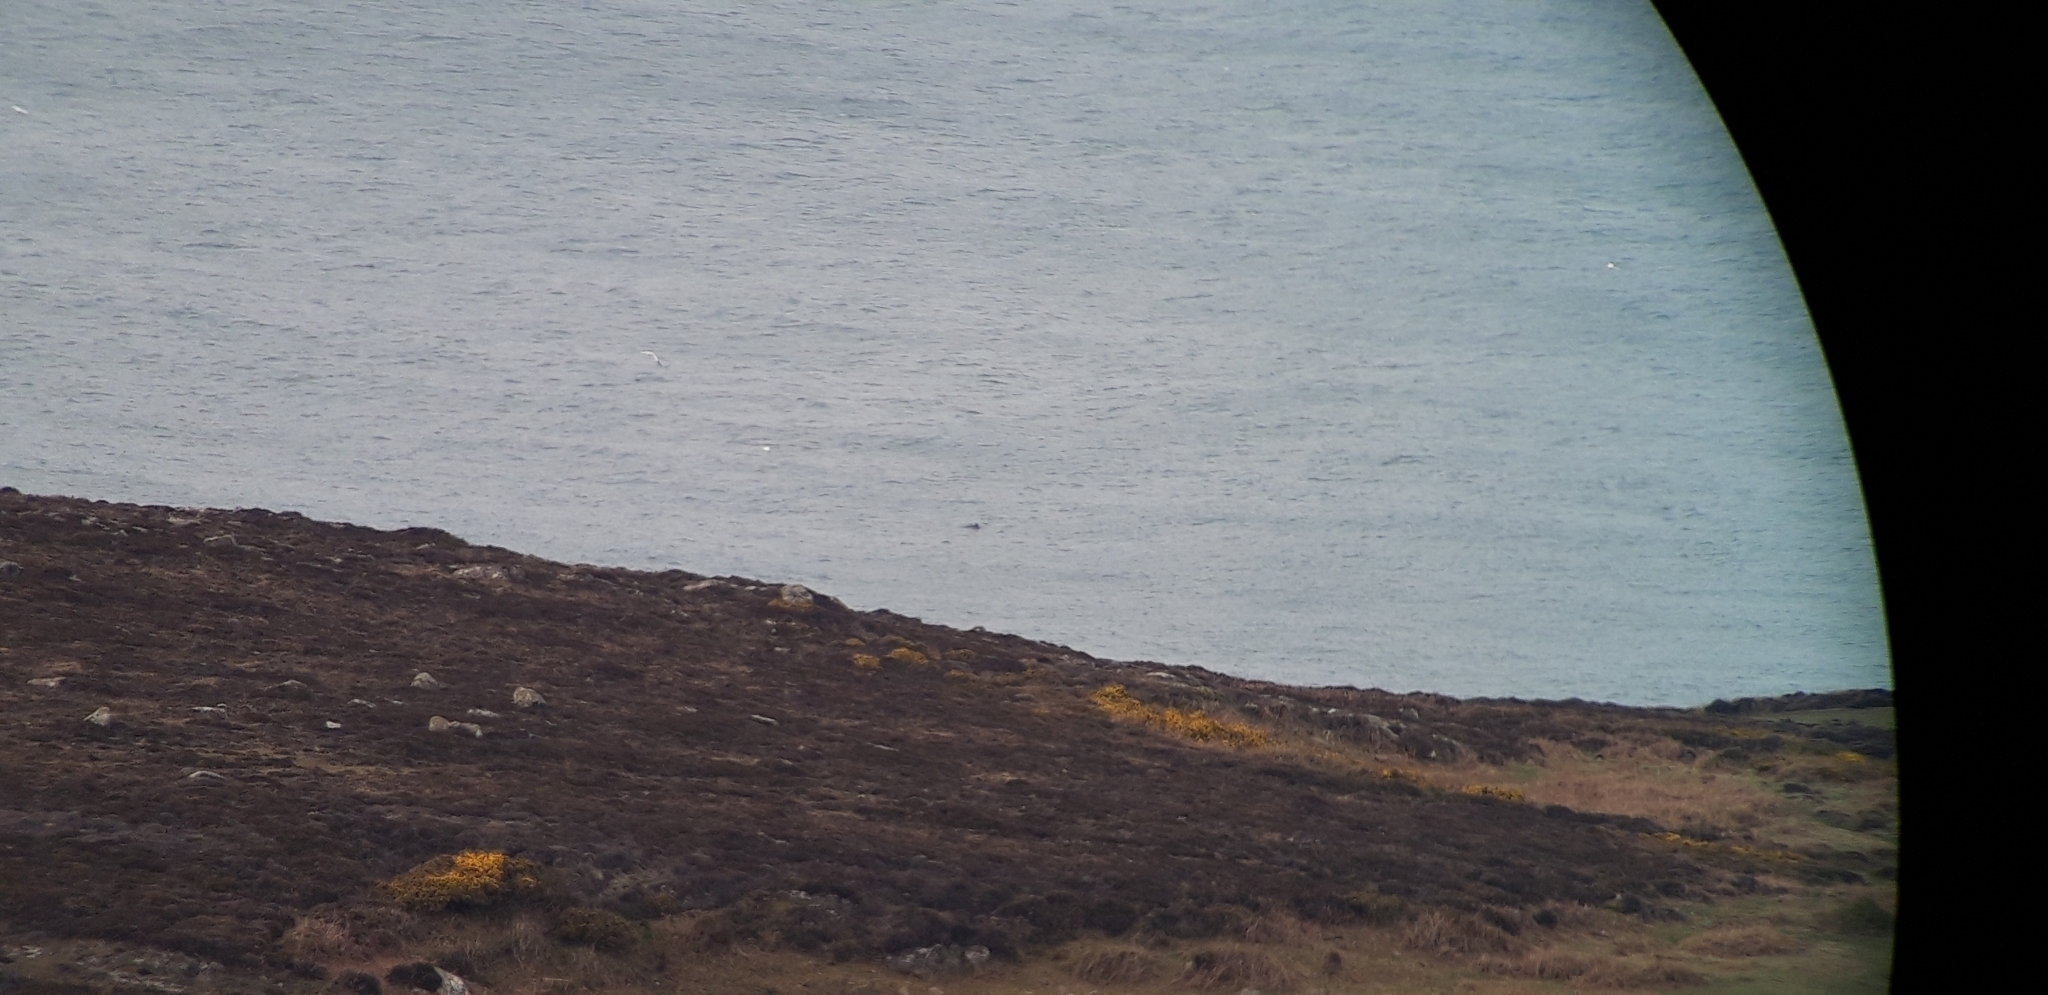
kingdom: Animalia
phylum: Chordata
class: Mammalia
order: Cetacea
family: Phocoenidae
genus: Phocoena
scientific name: Phocoena phocoena
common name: Harbor porpoise
